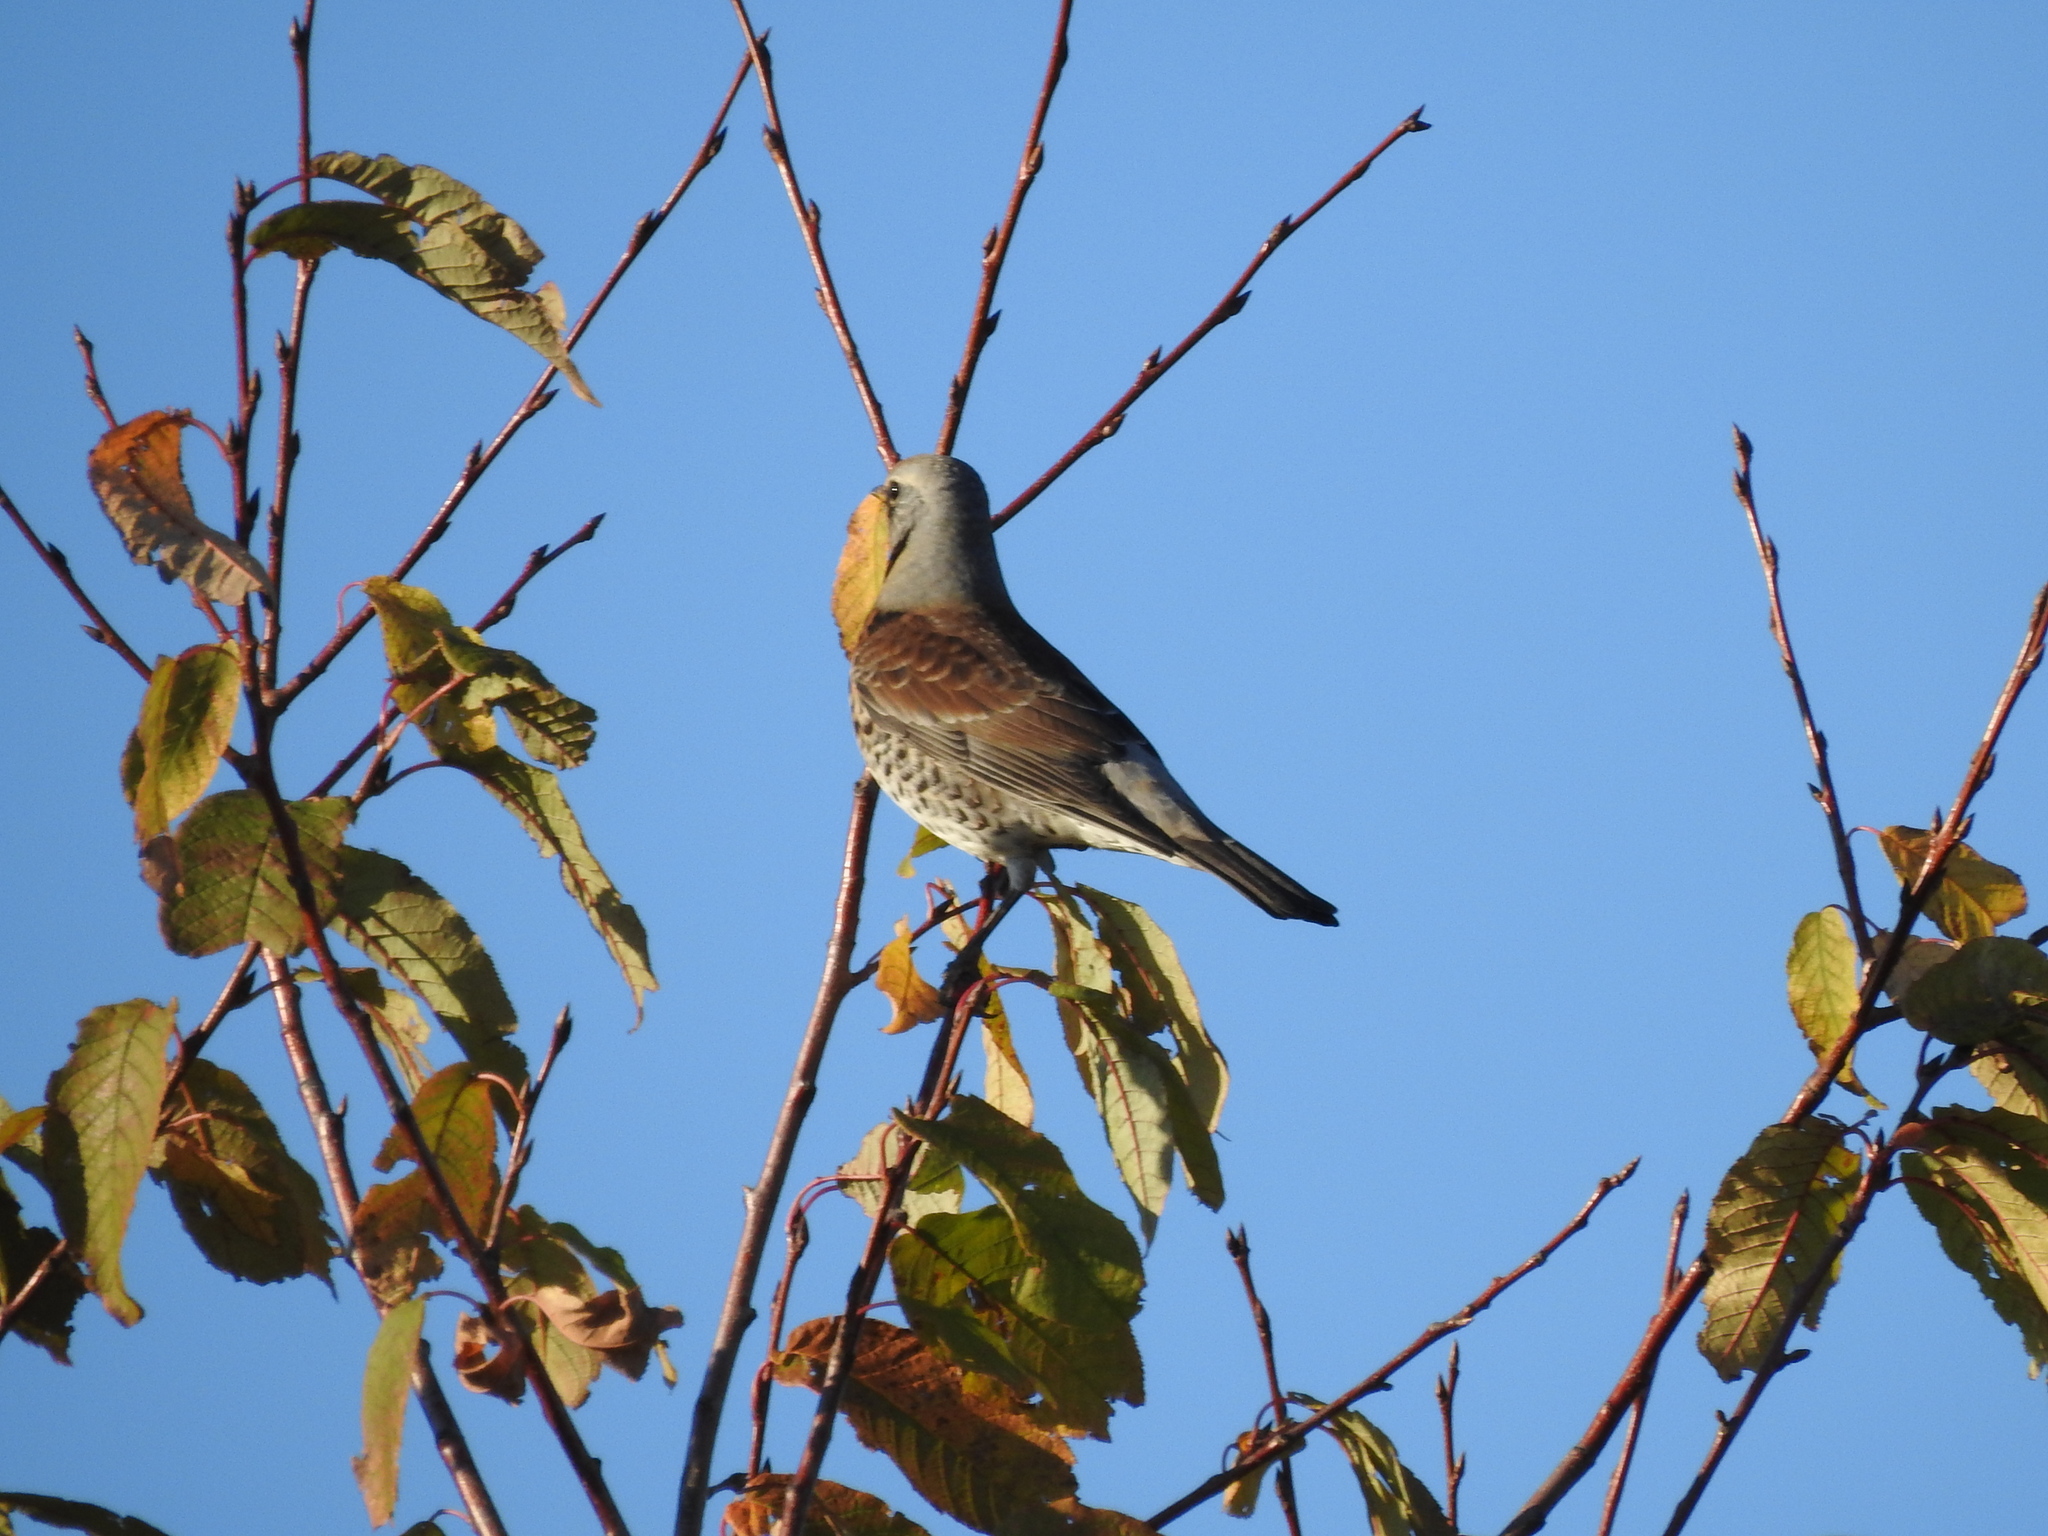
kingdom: Animalia
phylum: Chordata
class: Aves
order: Passeriformes
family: Turdidae
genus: Turdus
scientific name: Turdus pilaris
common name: Fieldfare
